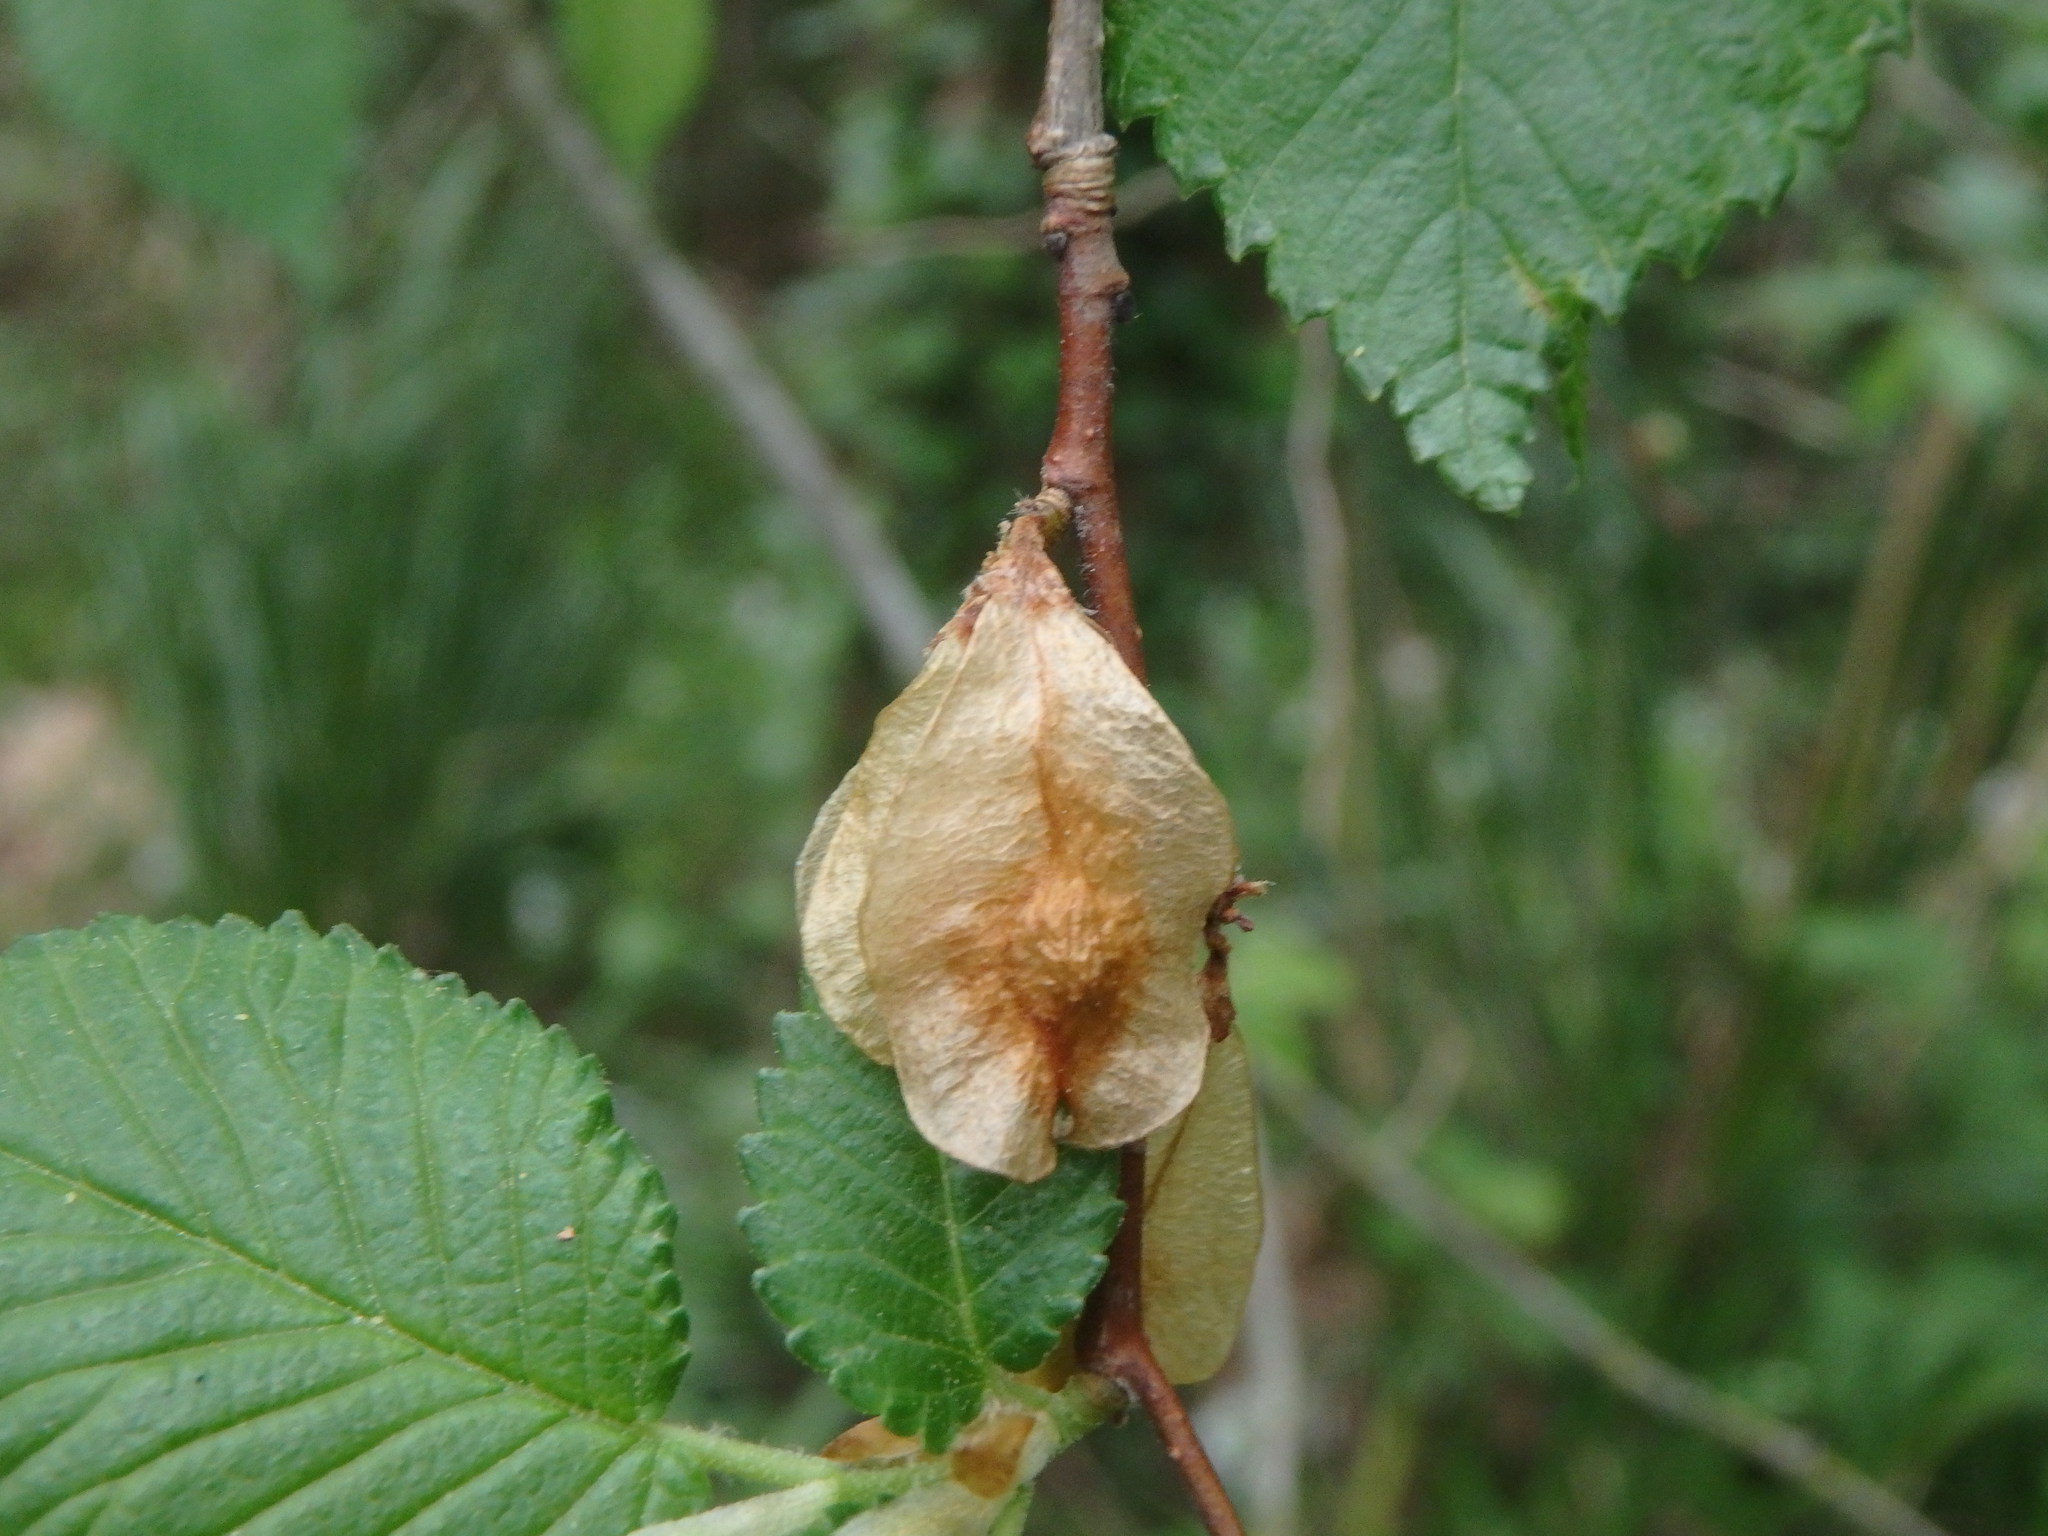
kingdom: Plantae
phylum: Tracheophyta
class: Magnoliopsida
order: Rosales
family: Ulmaceae
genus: Ulmus
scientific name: Ulmus minor
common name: Small-leaved elm
